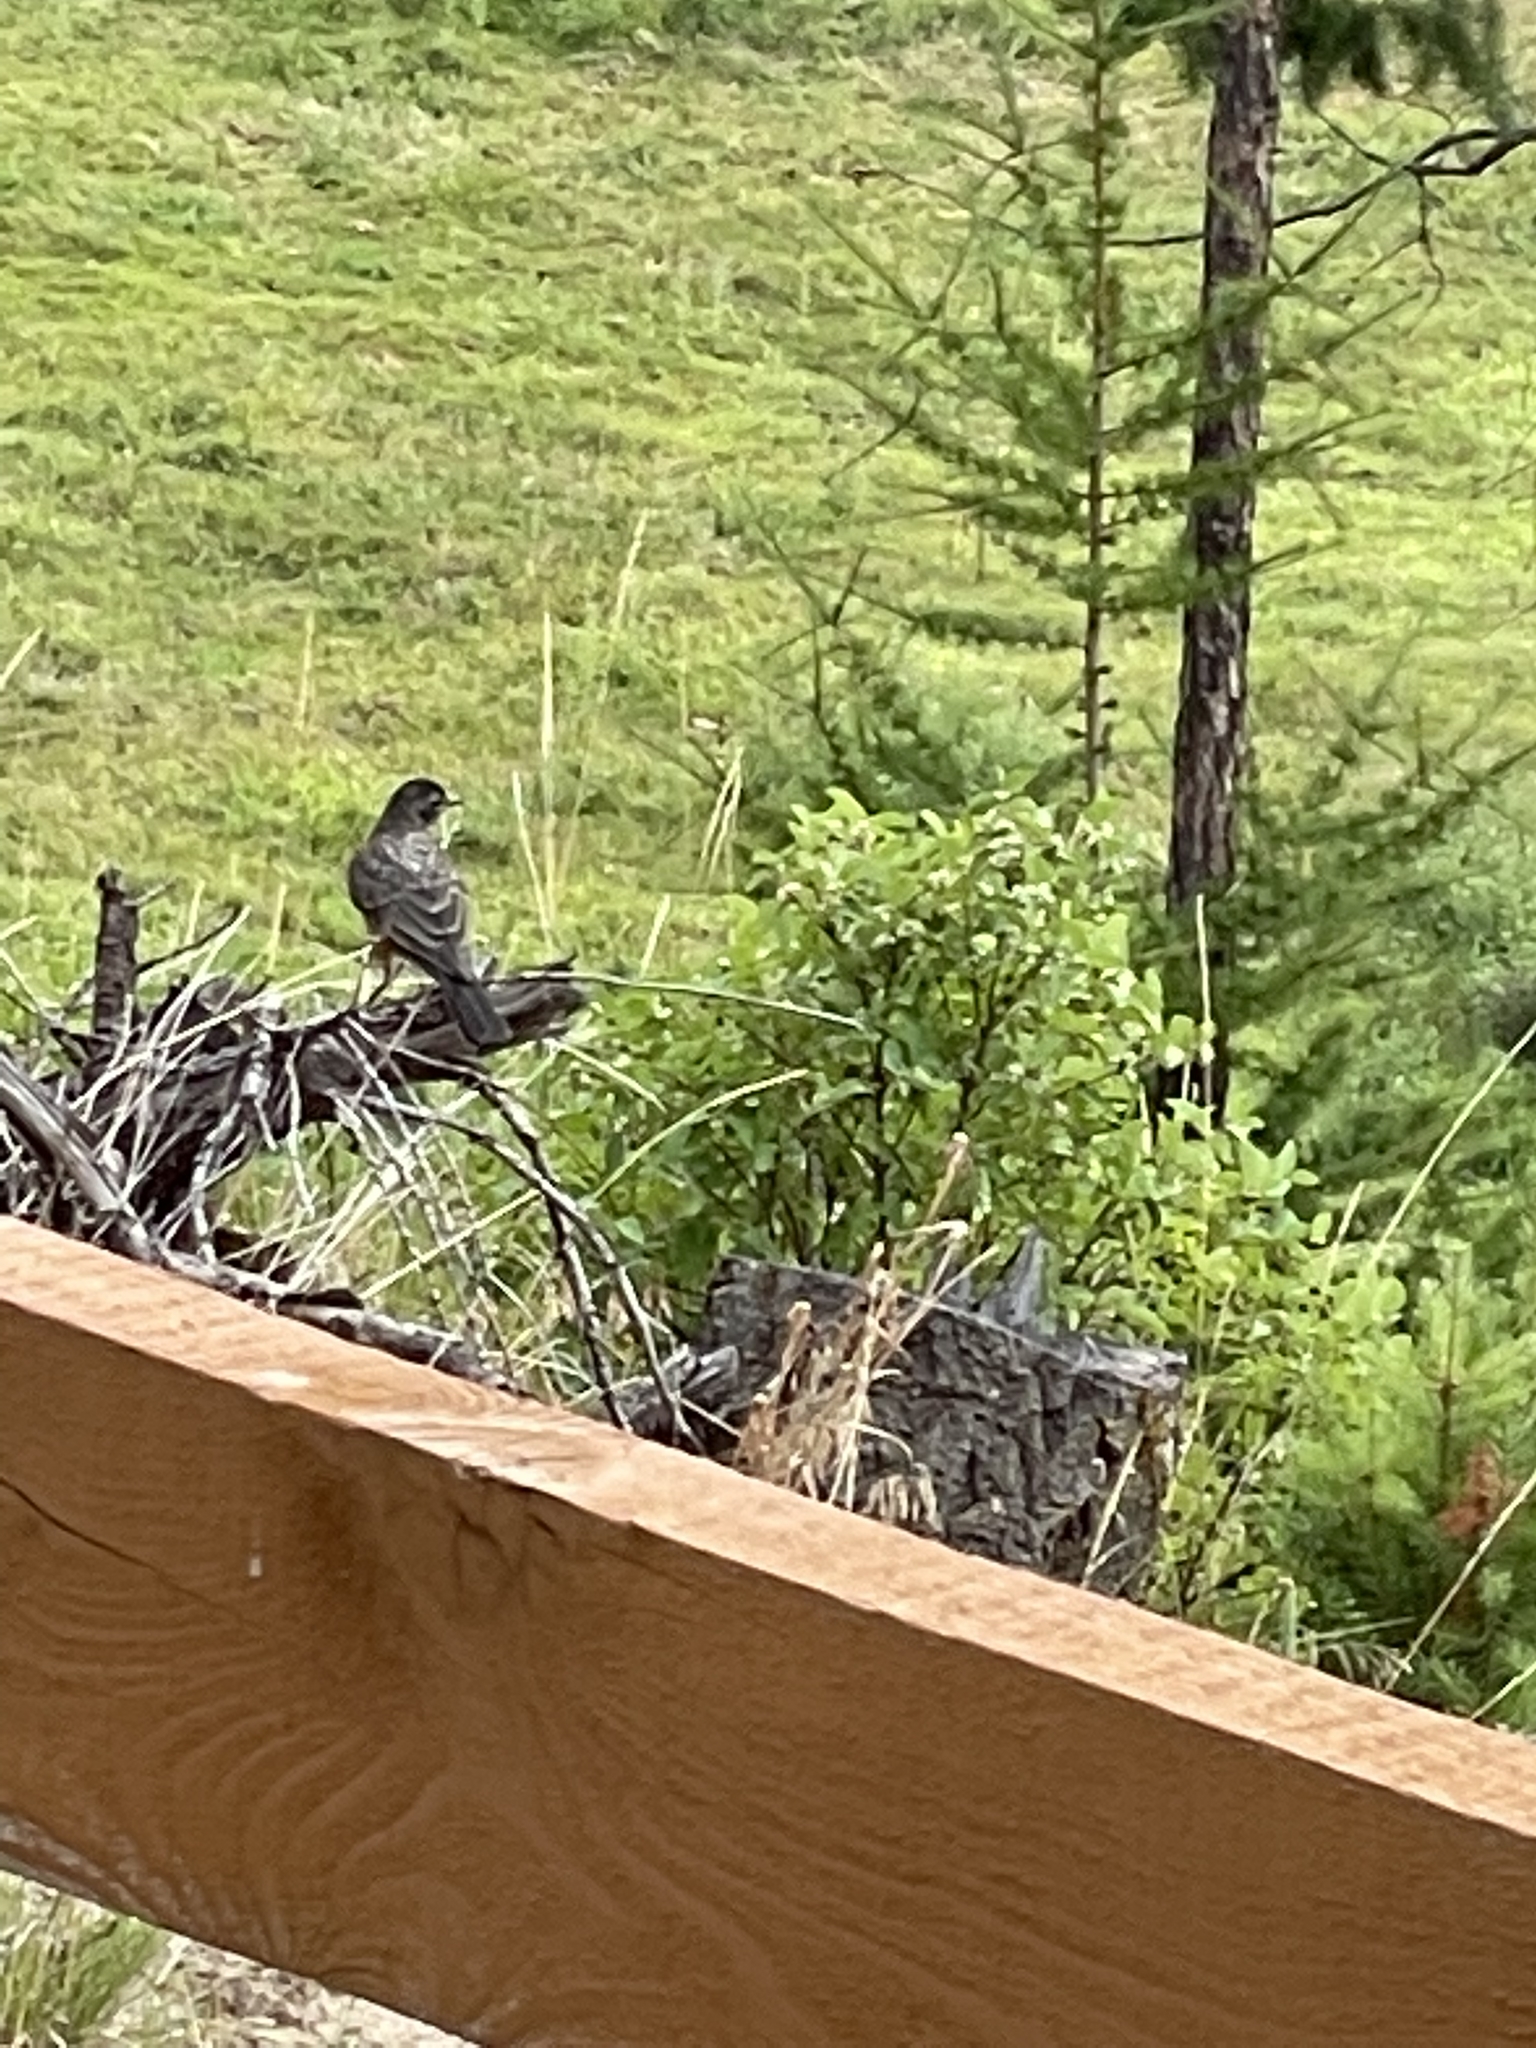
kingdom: Animalia
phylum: Chordata
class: Aves
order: Passeriformes
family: Turdidae
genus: Turdus
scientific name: Turdus migratorius
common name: American robin
